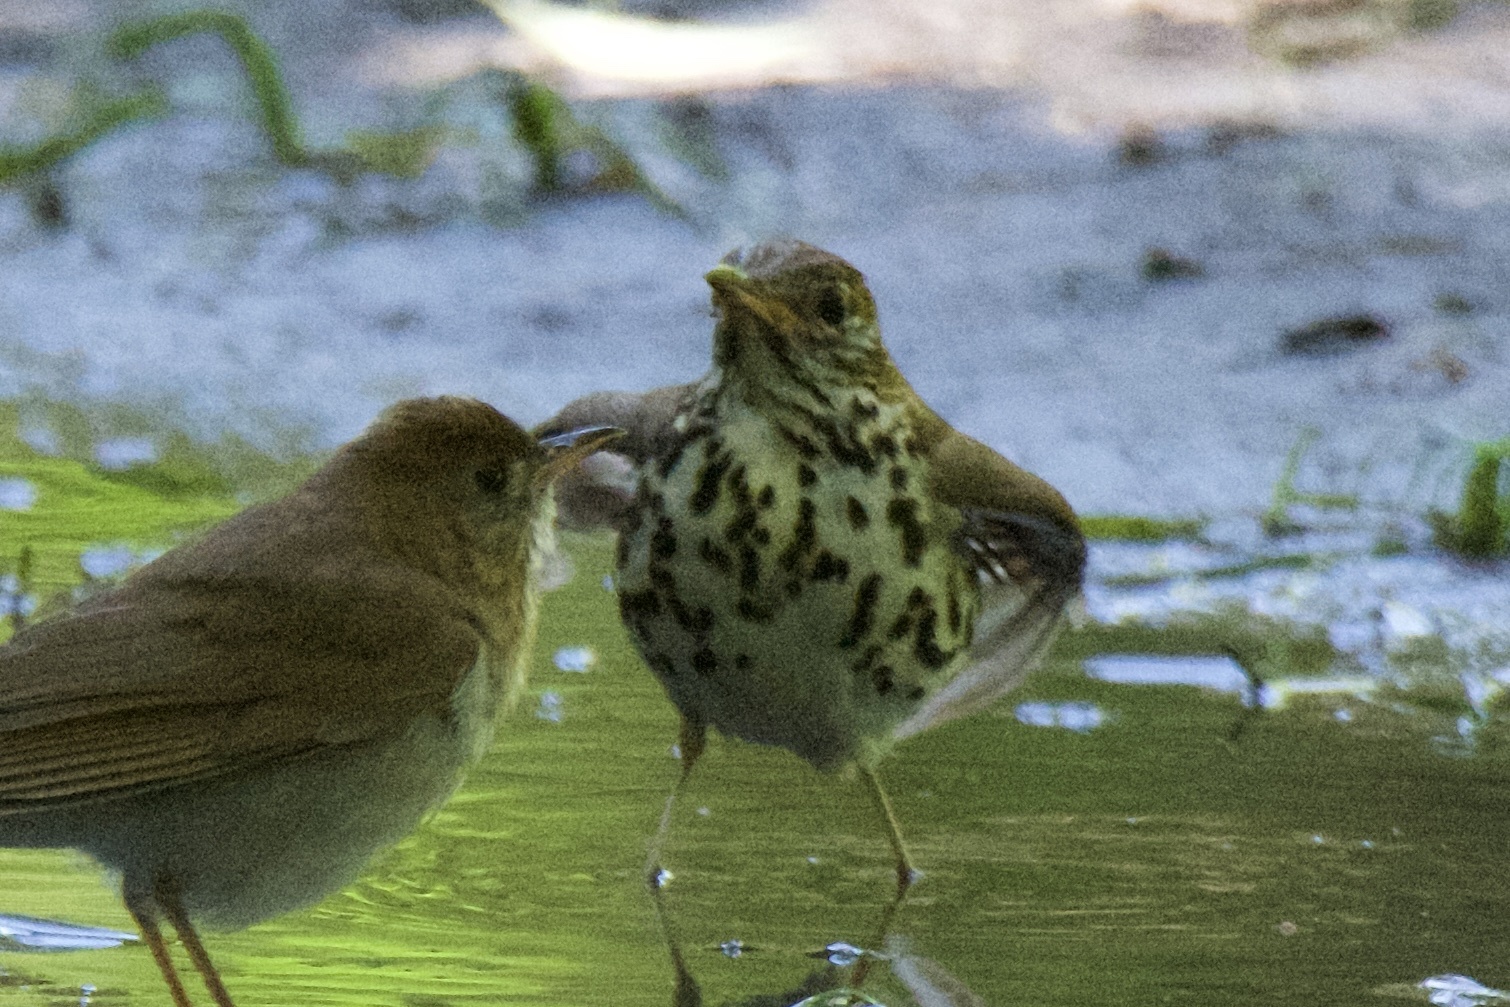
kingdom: Animalia
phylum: Chordata
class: Aves
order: Passeriformes
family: Turdidae
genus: Hylocichla
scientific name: Hylocichla mustelina
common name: Wood thrush
